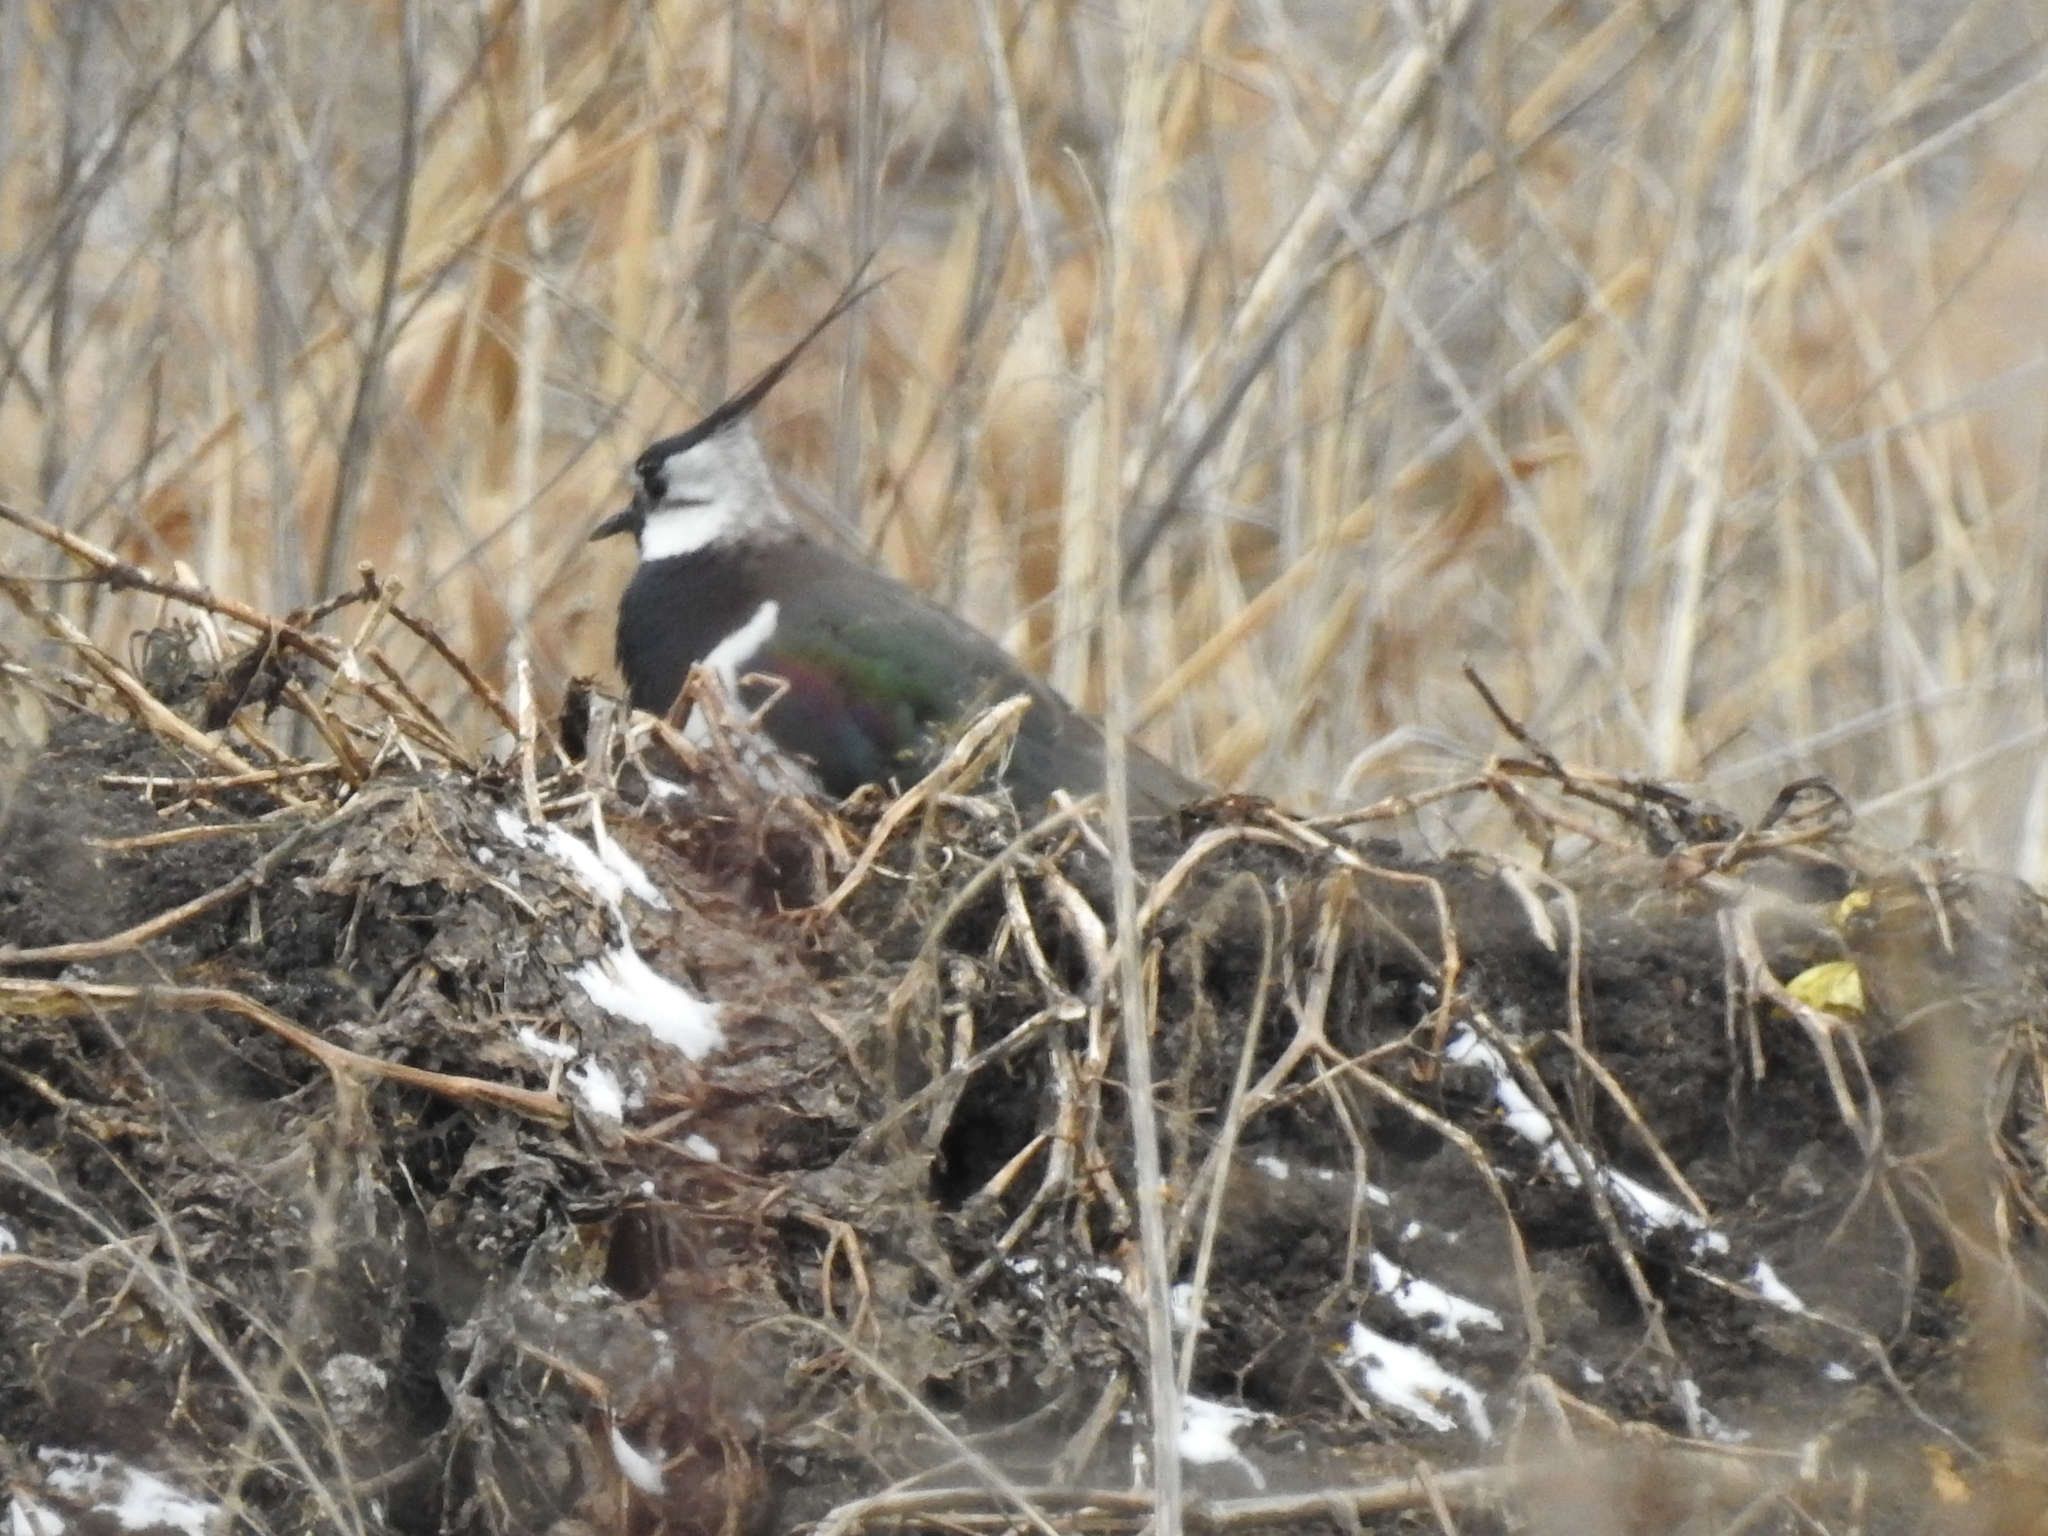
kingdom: Animalia
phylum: Chordata
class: Aves
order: Charadriiformes
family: Charadriidae
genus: Vanellus
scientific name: Vanellus vanellus
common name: Northern lapwing
